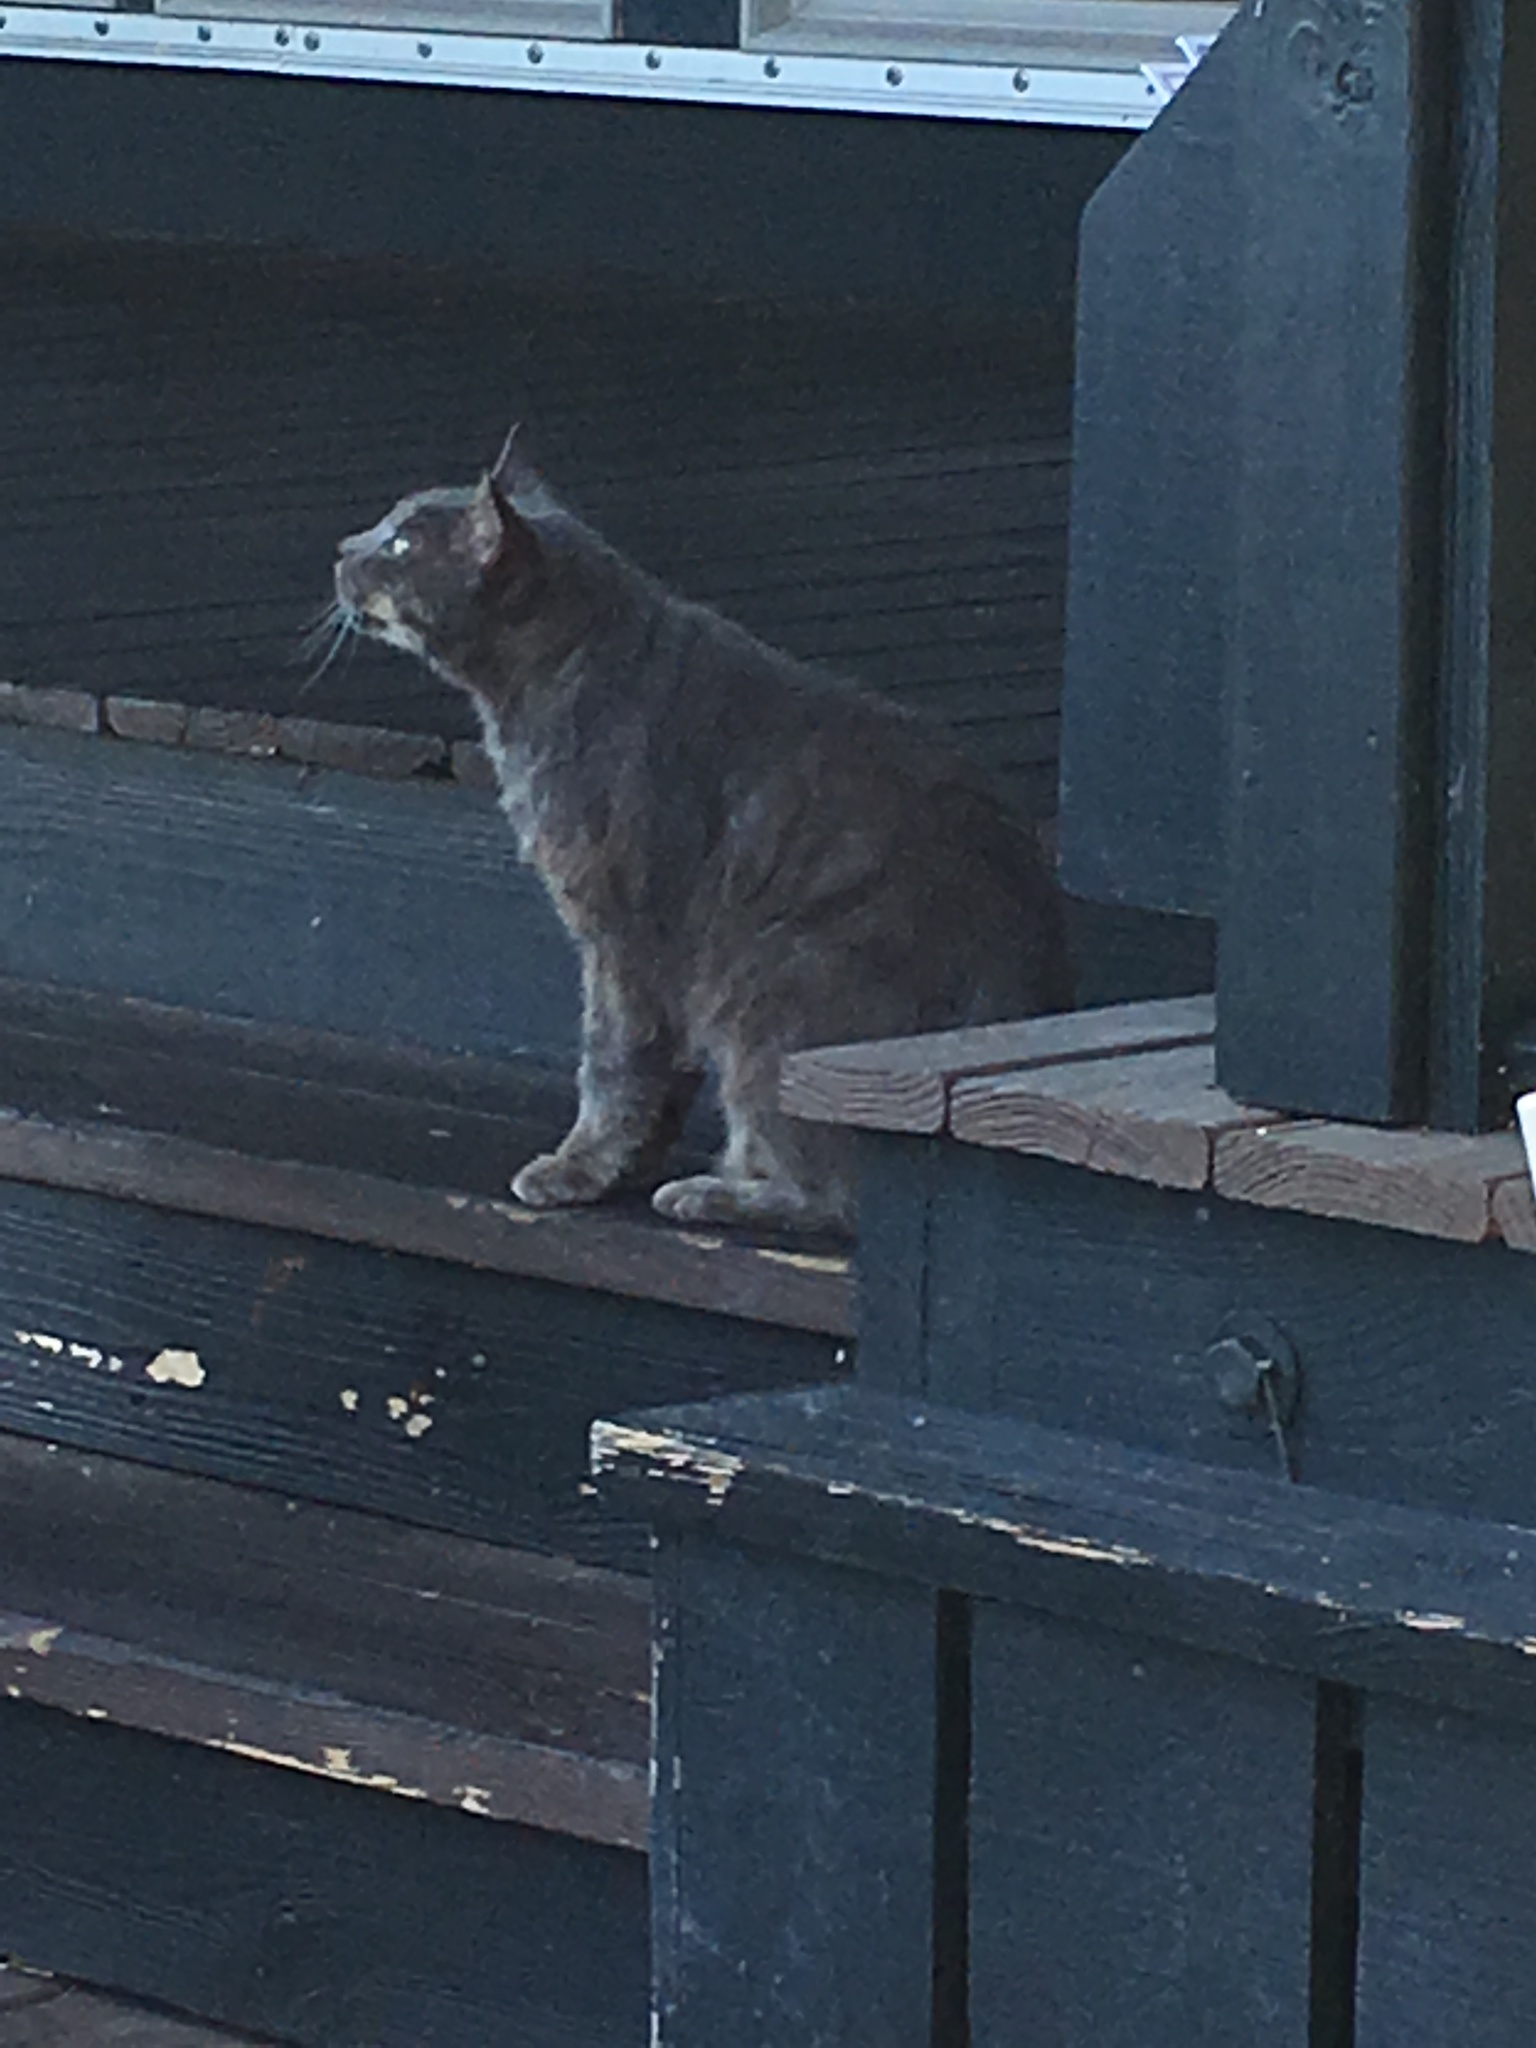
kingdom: Animalia
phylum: Chordata
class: Mammalia
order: Carnivora
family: Felidae
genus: Felis
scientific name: Felis catus
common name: Domestic cat
